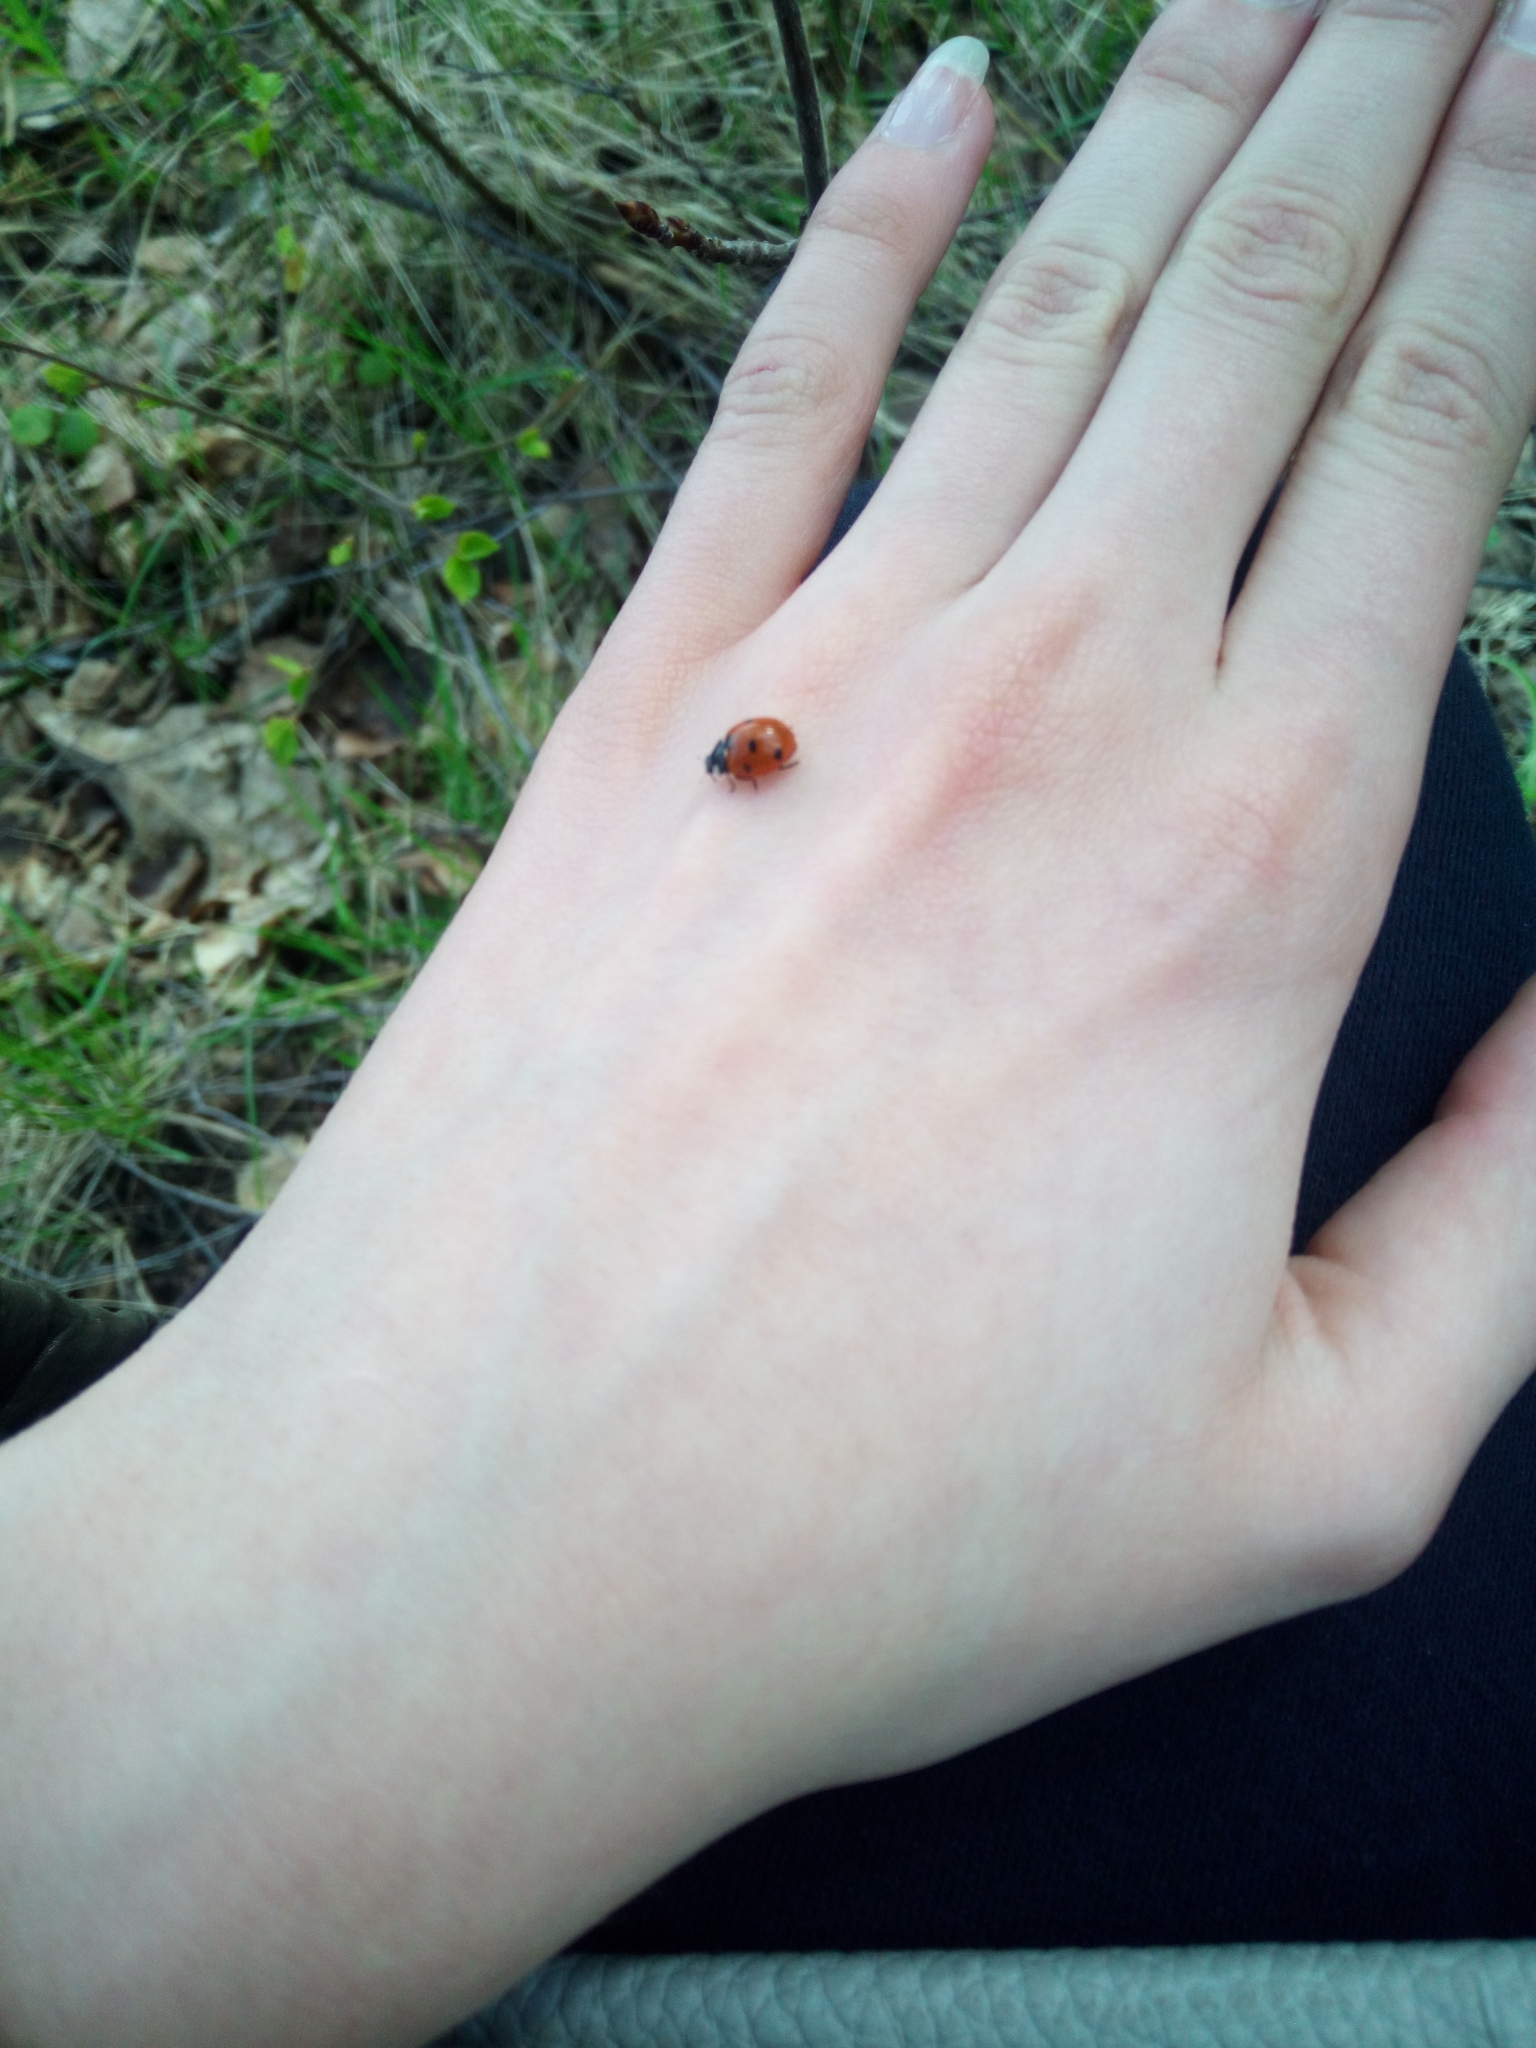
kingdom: Animalia
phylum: Arthropoda
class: Insecta
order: Coleoptera
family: Coccinellidae
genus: Coccinella
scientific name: Coccinella septempunctata
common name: Sevenspotted lady beetle
